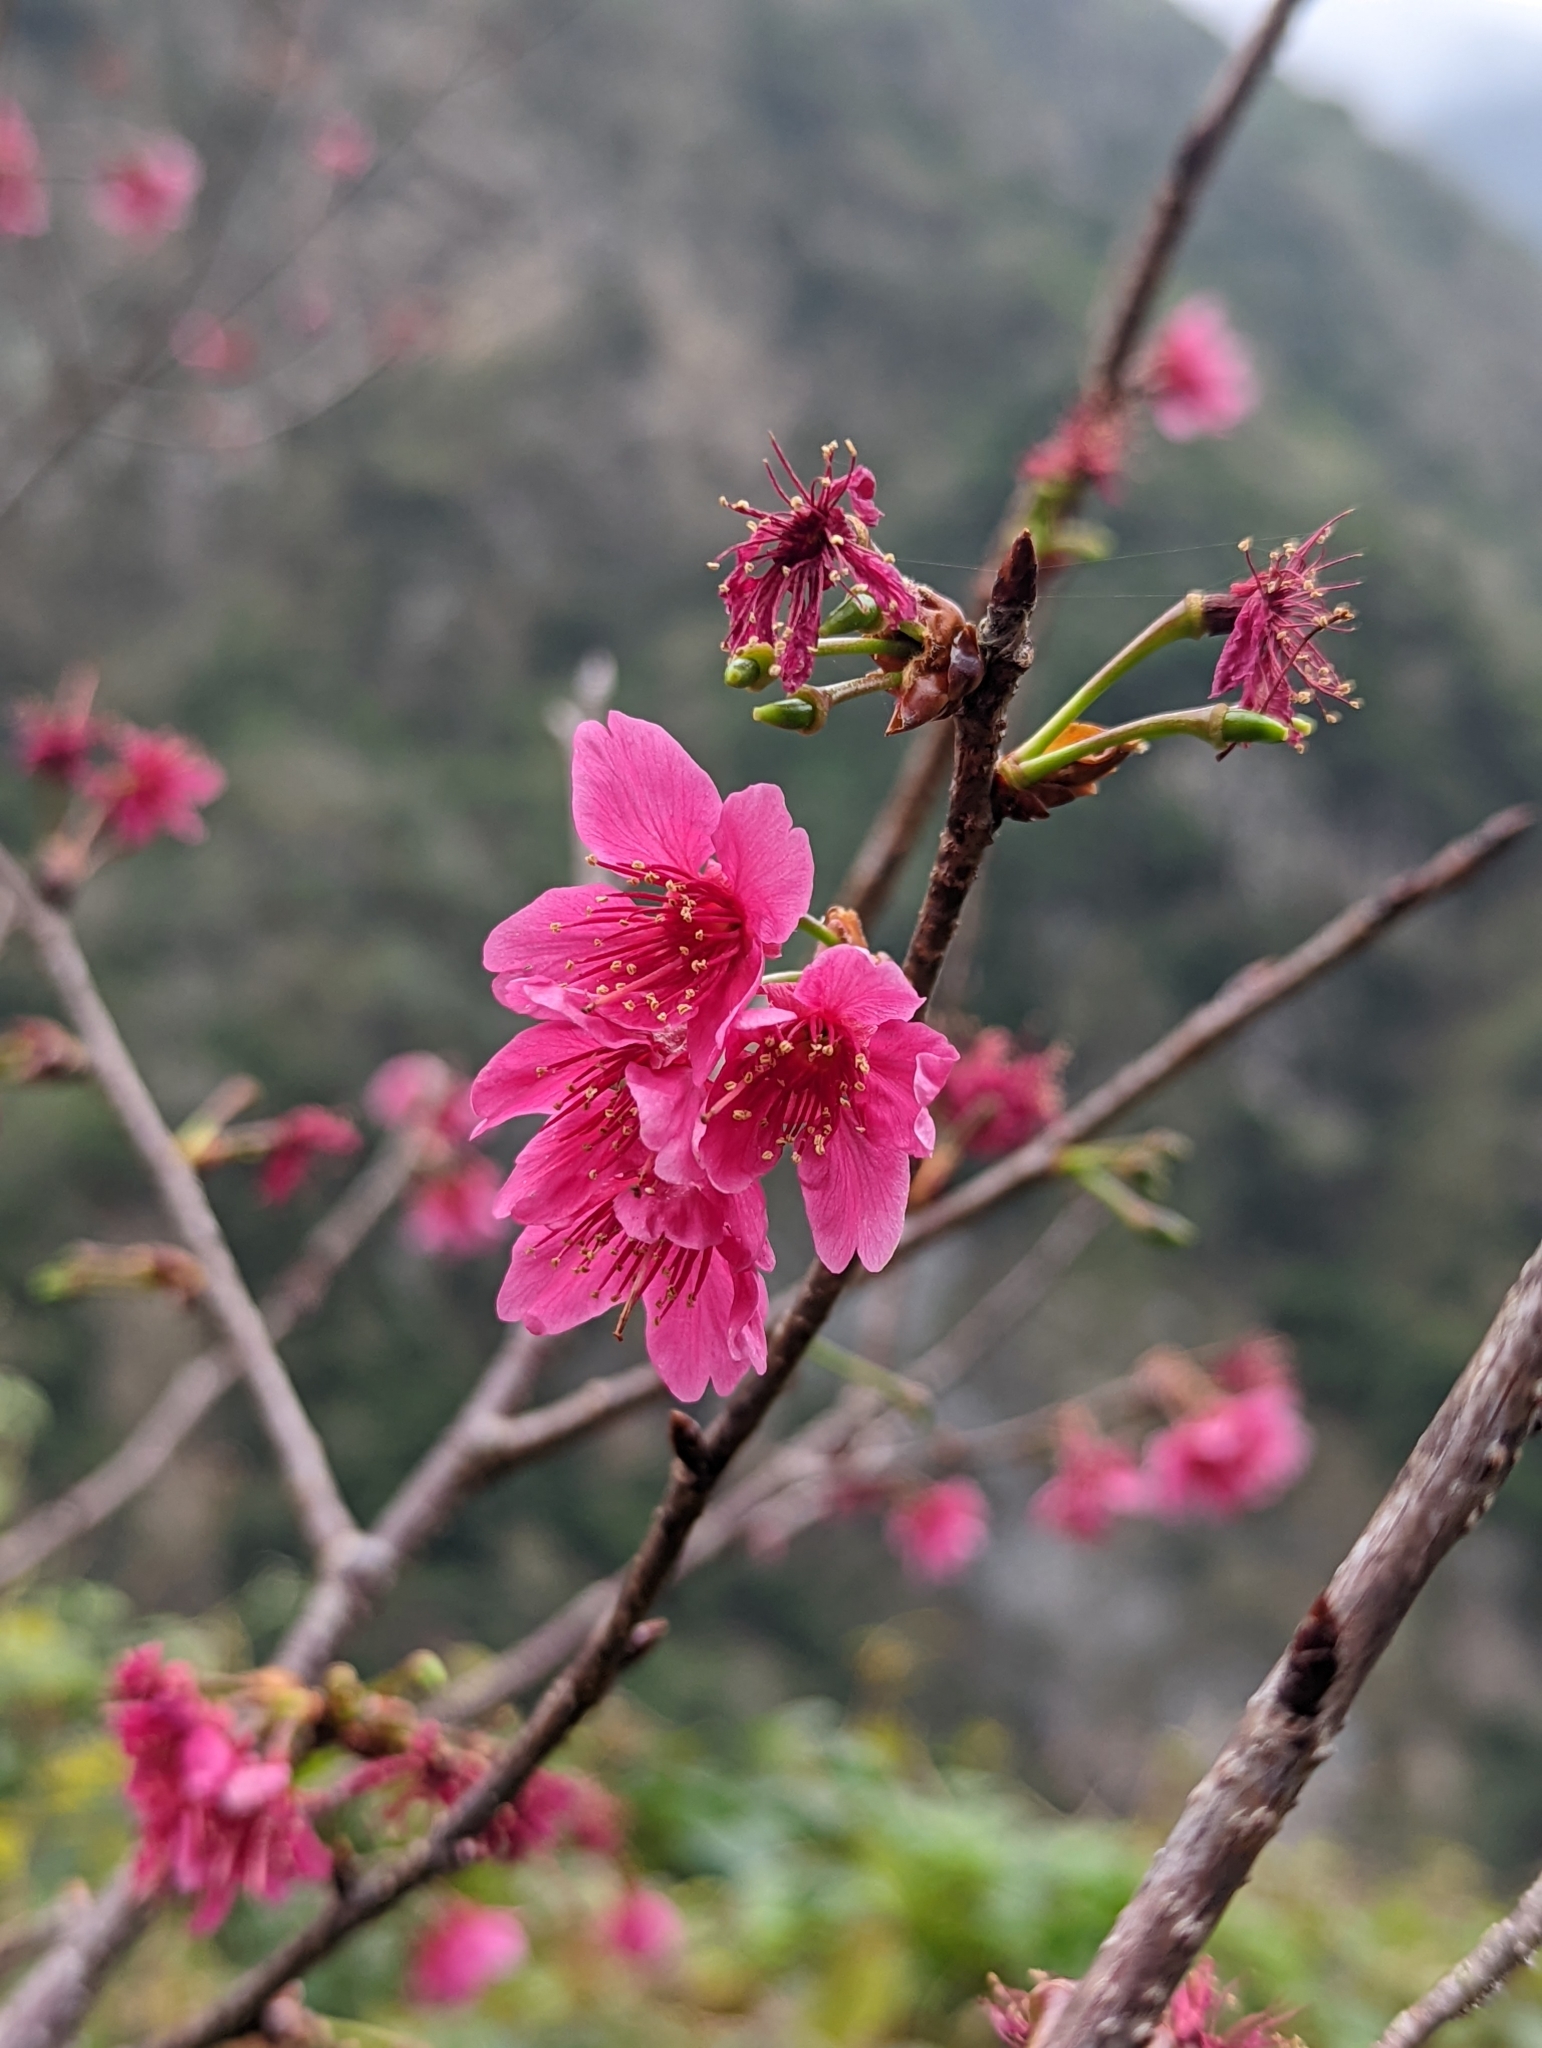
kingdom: Plantae
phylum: Tracheophyta
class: Magnoliopsida
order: Rosales
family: Rosaceae
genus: Prunus
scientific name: Prunus campanulata
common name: Taiwan flowering cherry
